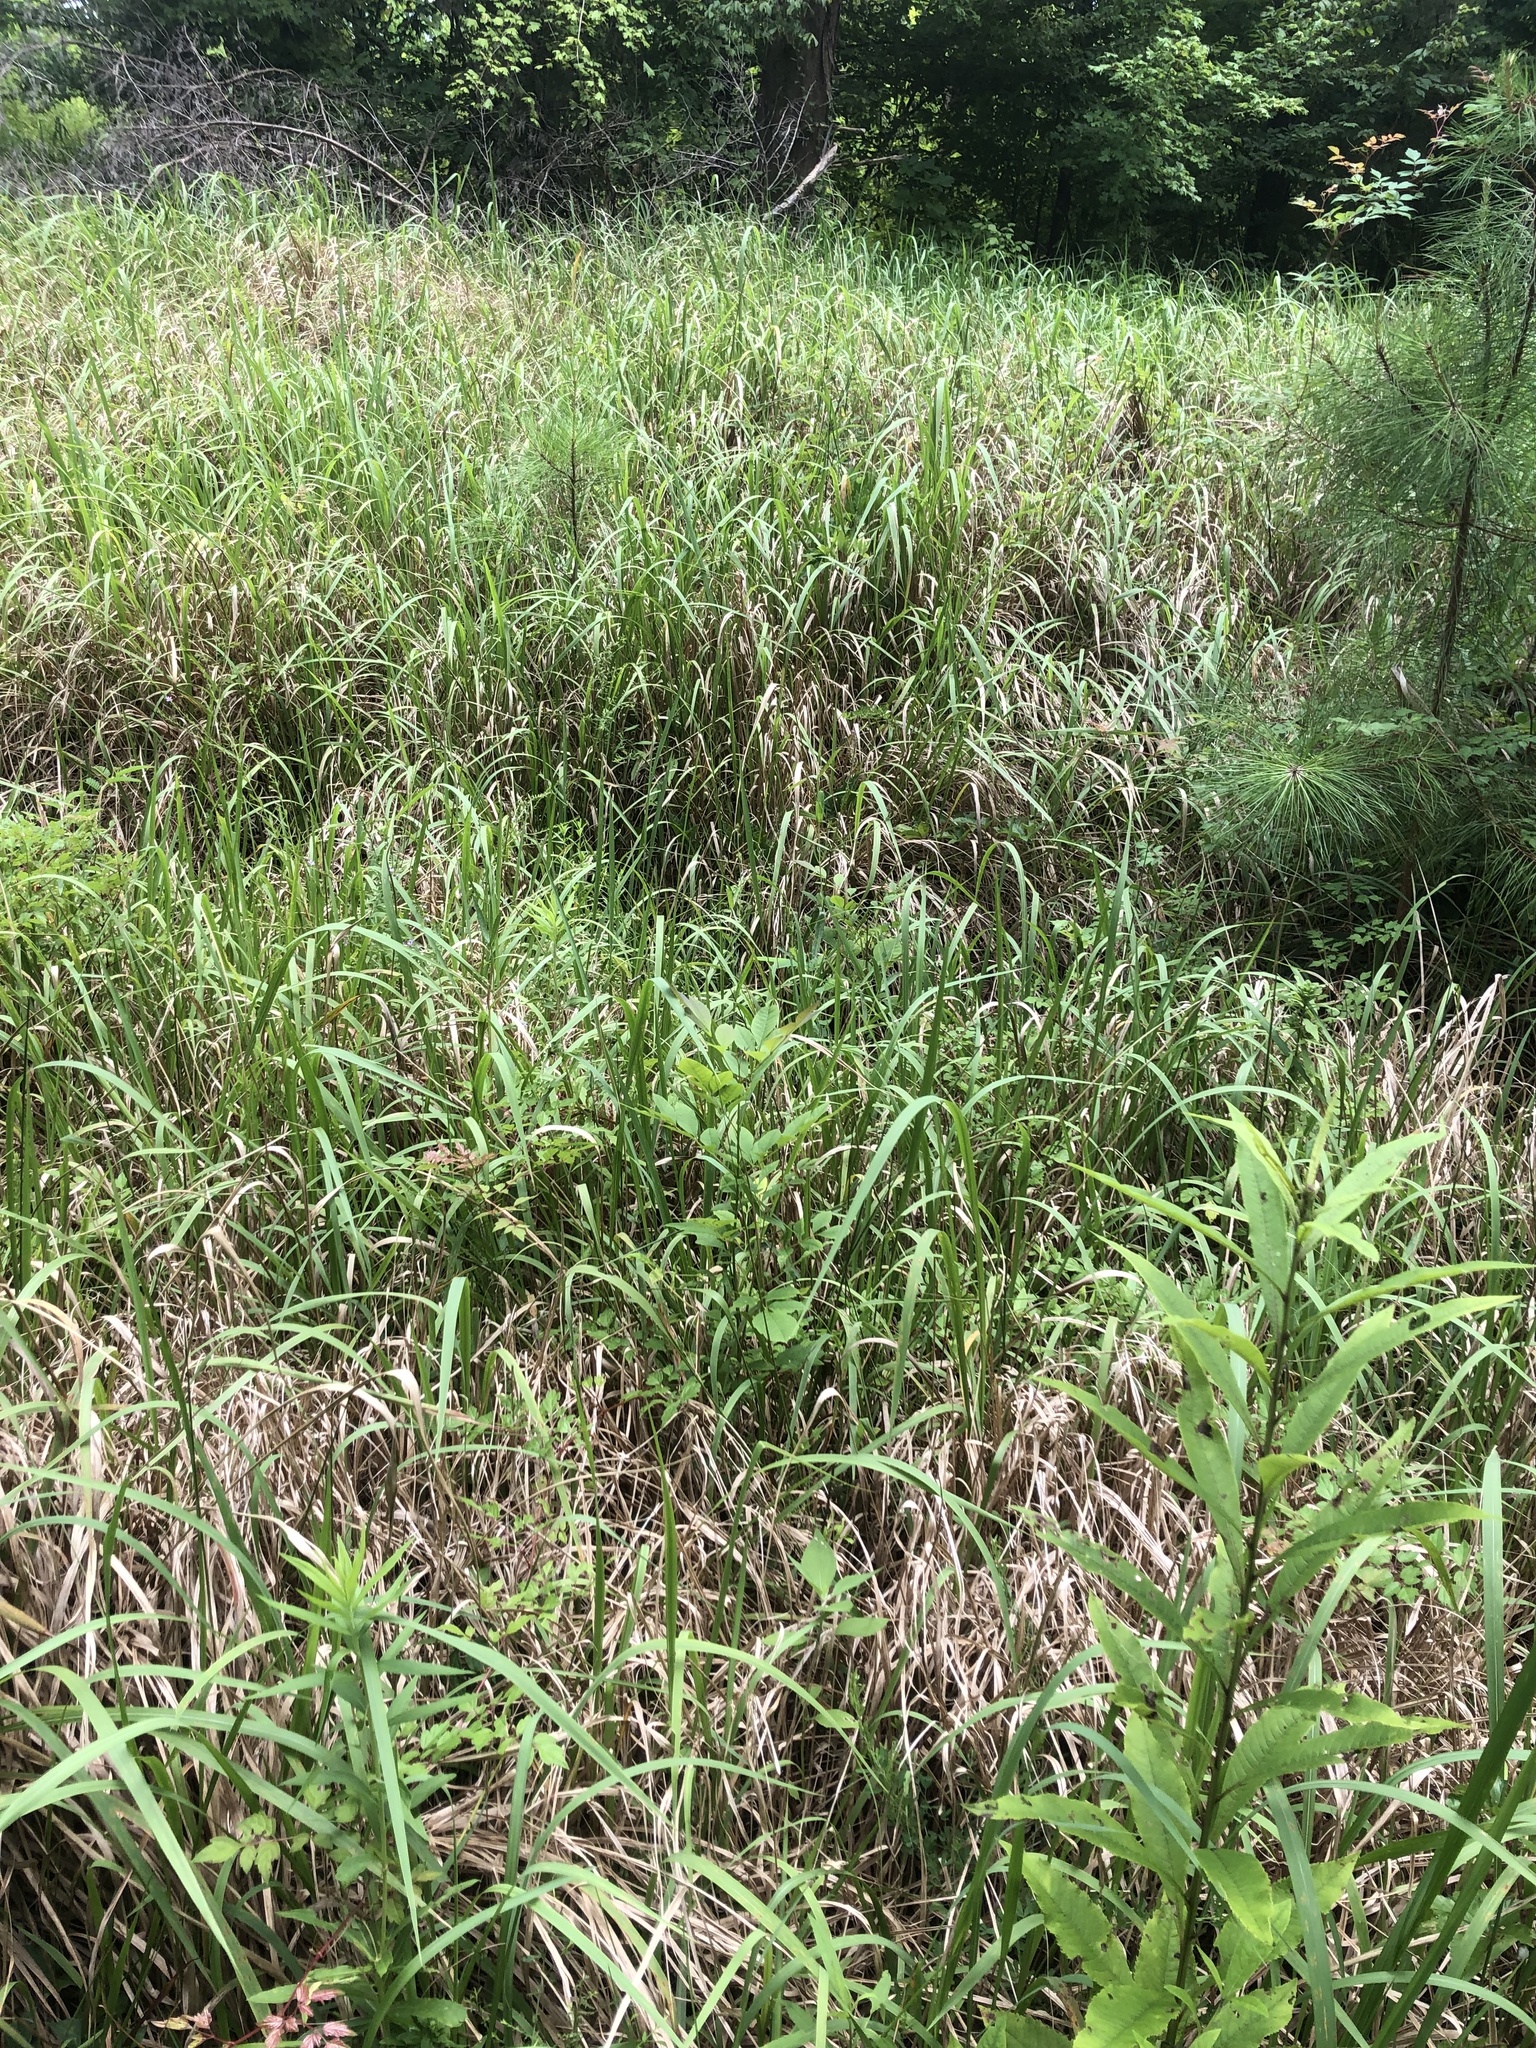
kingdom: Plantae
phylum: Tracheophyta
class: Liliopsida
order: Poales
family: Poaceae
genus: Imperata
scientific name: Imperata cylindrica
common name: Cogongrass
